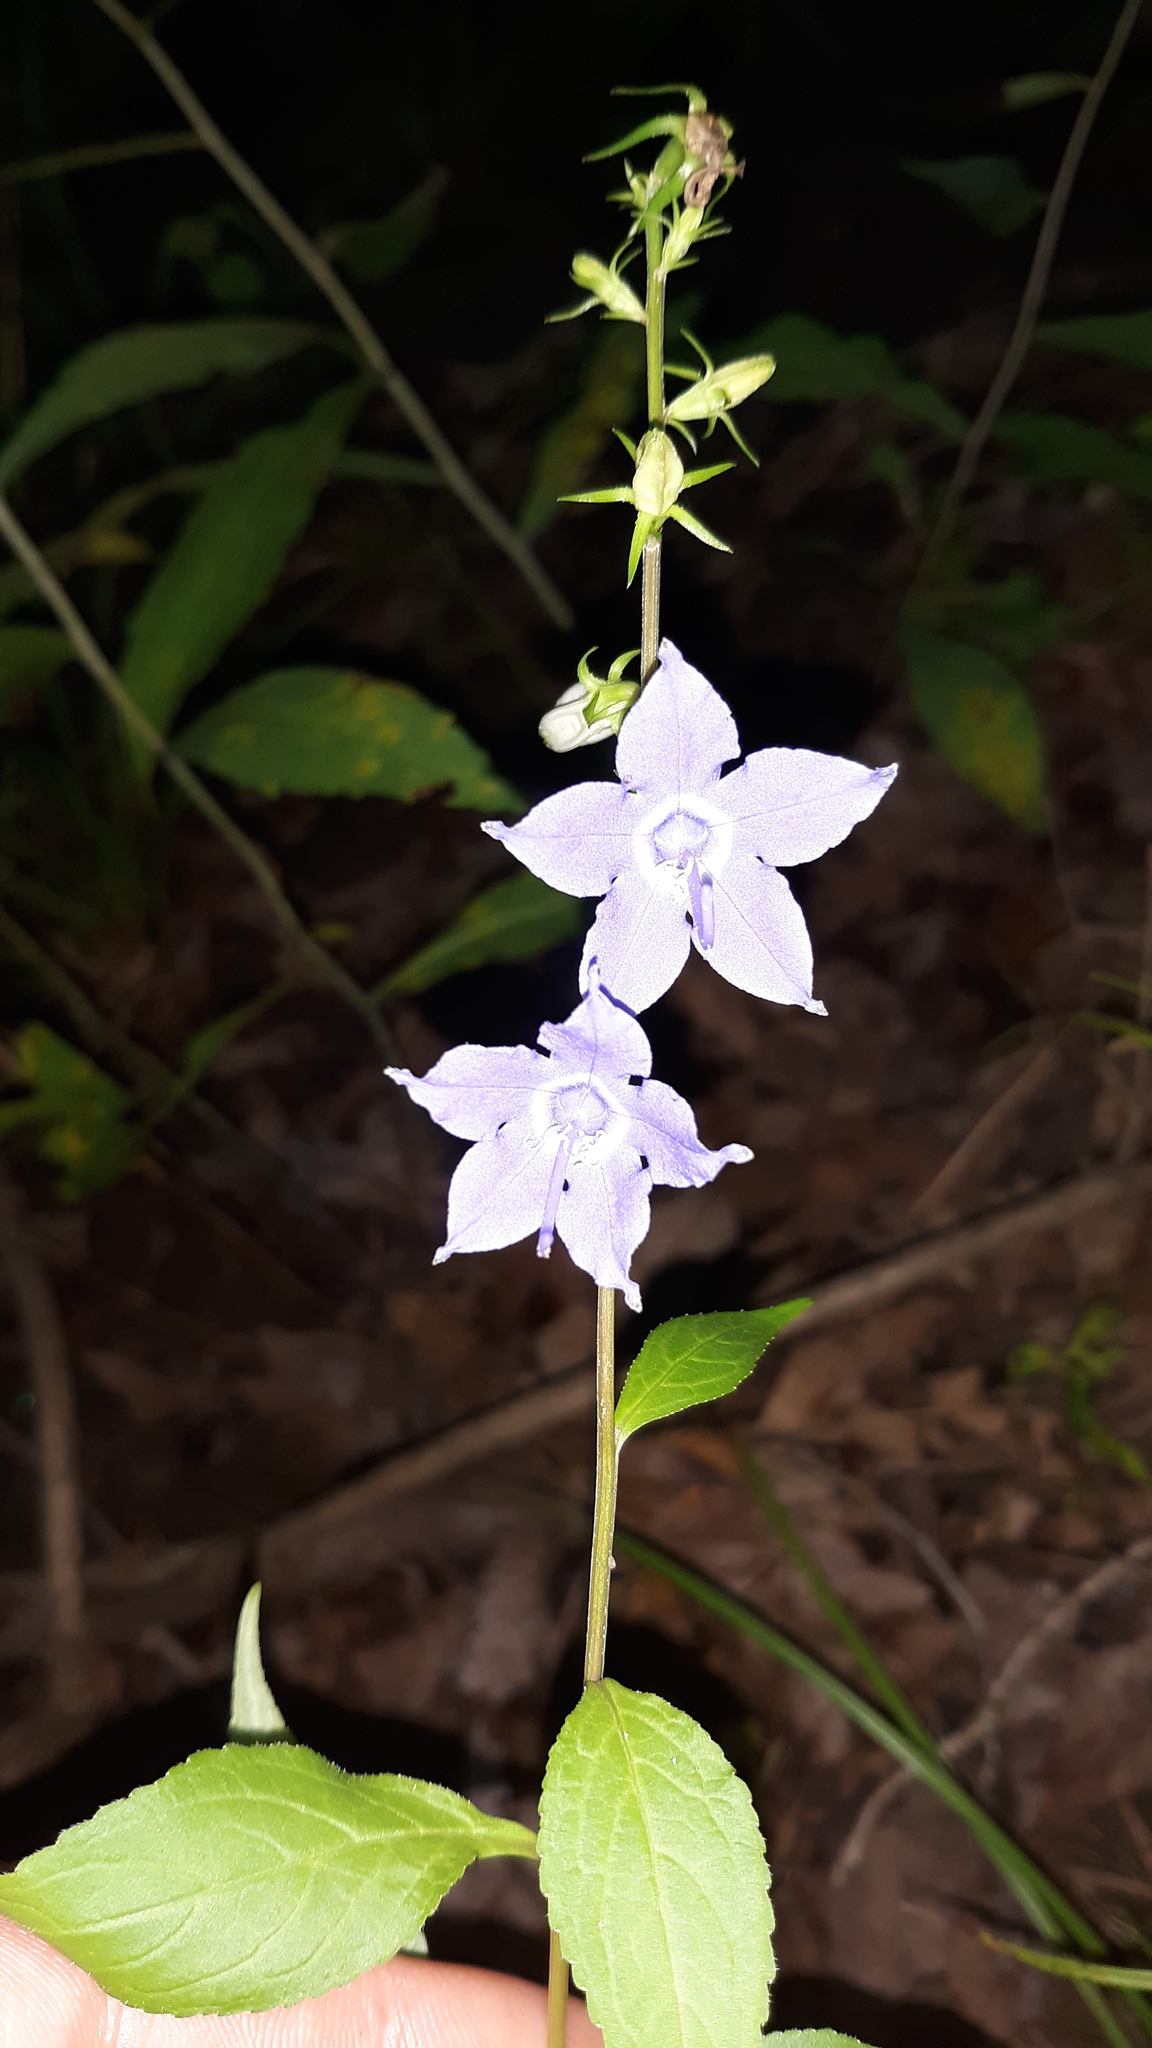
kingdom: Plantae
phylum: Tracheophyta
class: Magnoliopsida
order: Asterales
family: Campanulaceae
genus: Campanulastrum
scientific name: Campanulastrum americanum
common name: American bellflower
